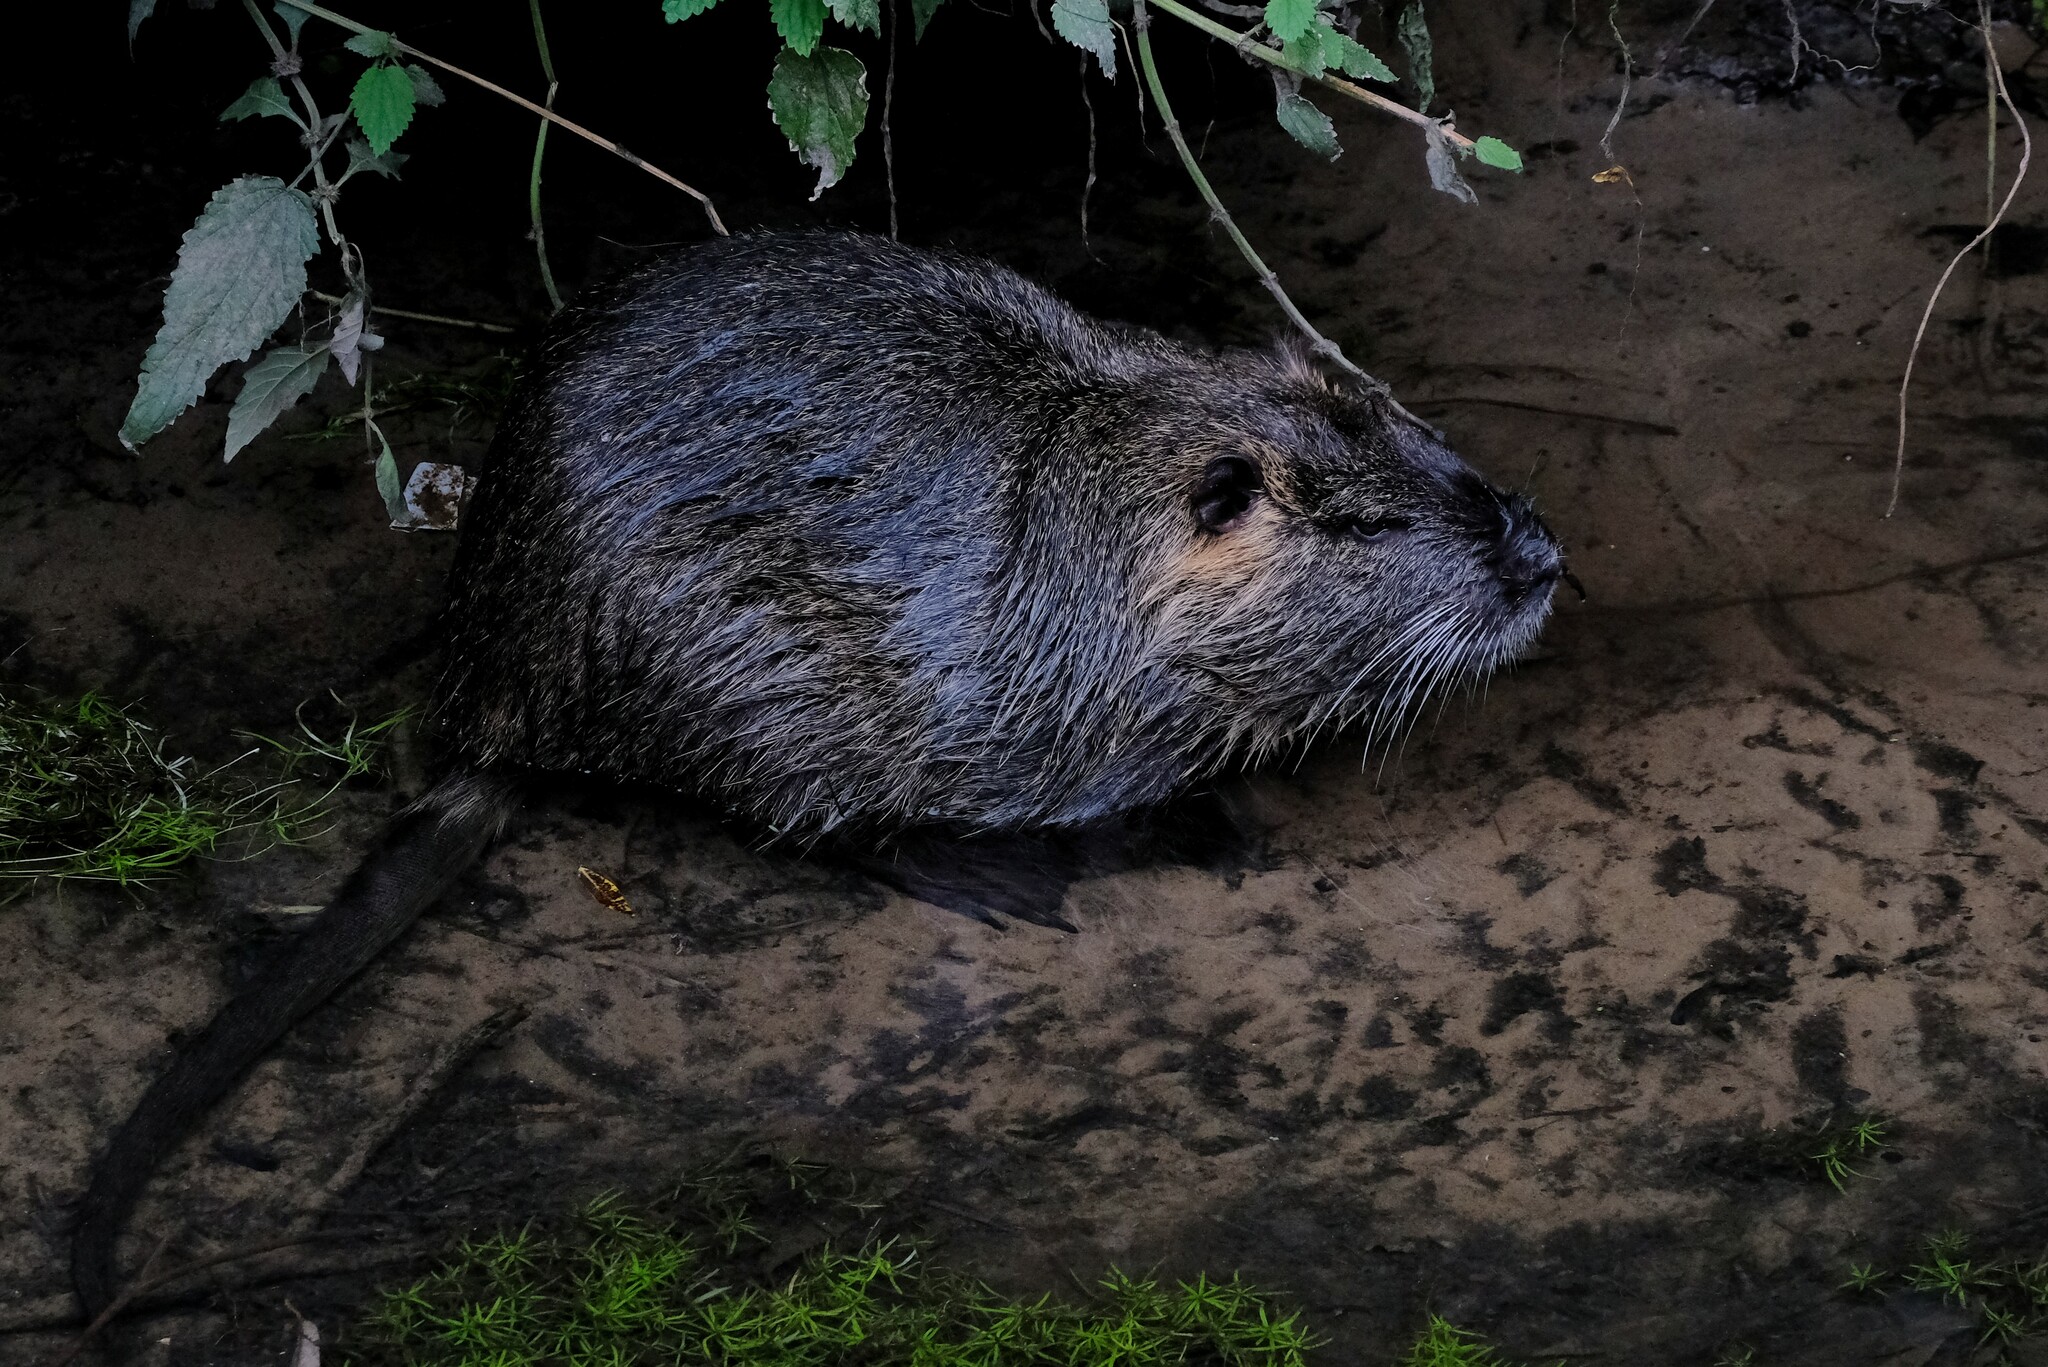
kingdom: Animalia
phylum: Chordata
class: Mammalia
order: Rodentia
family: Myocastoridae
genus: Myocastor
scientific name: Myocastor coypus
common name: Coypu
